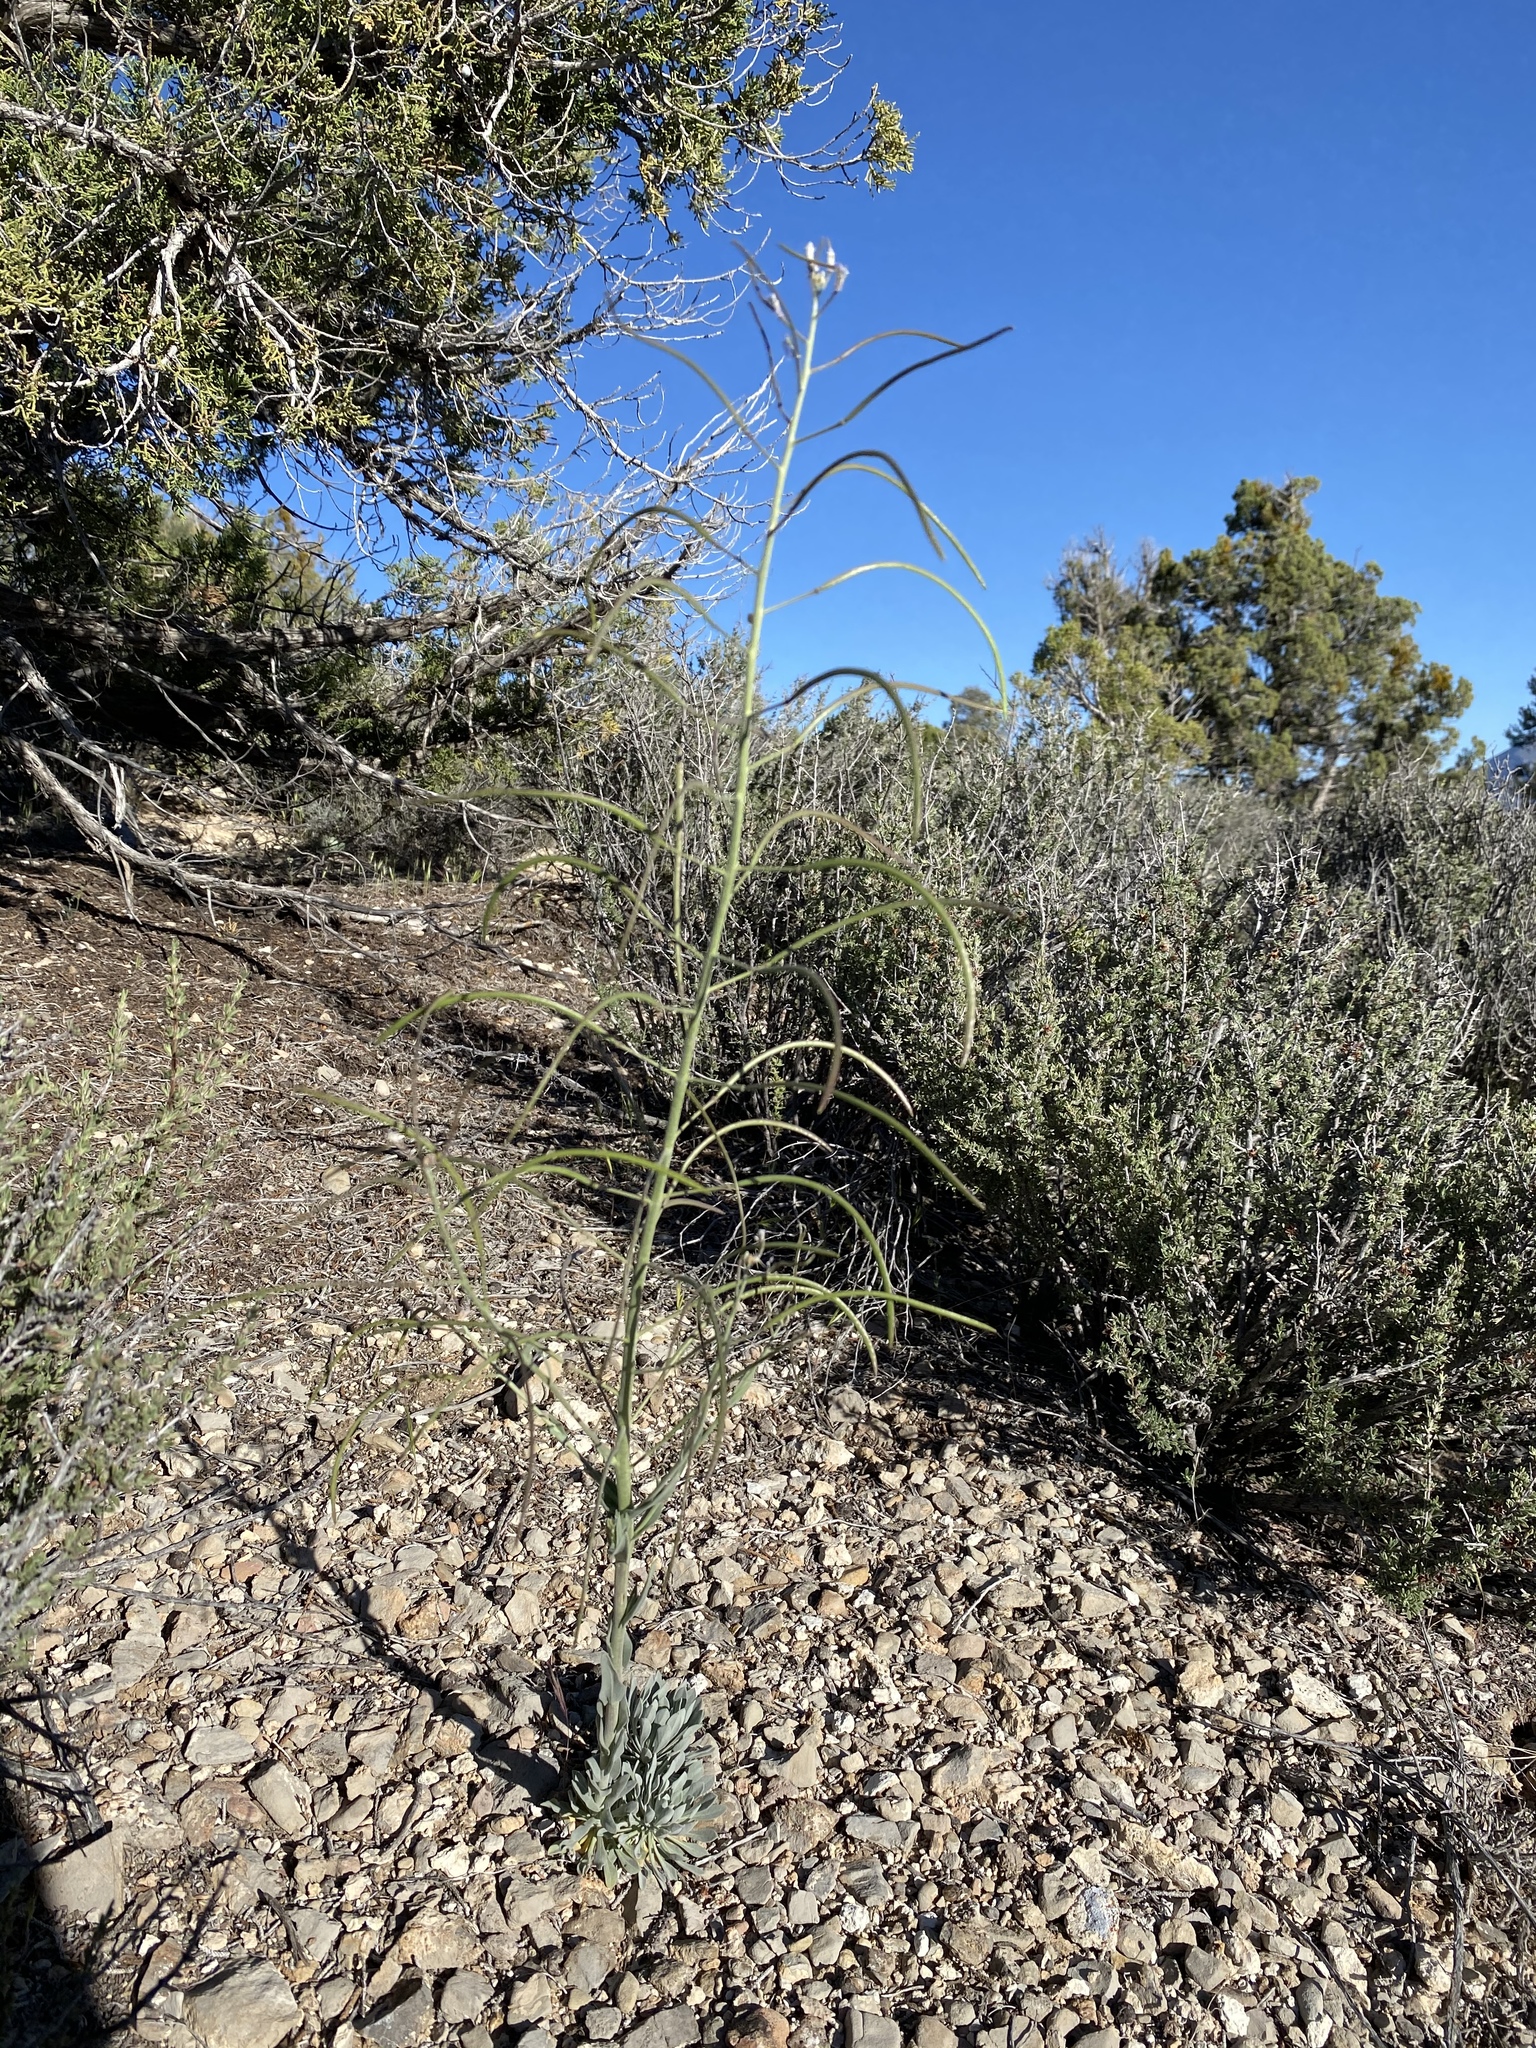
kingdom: Plantae
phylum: Tracheophyta
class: Magnoliopsida
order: Brassicales
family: Brassicaceae
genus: Boechera
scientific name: Boechera shockleyi
